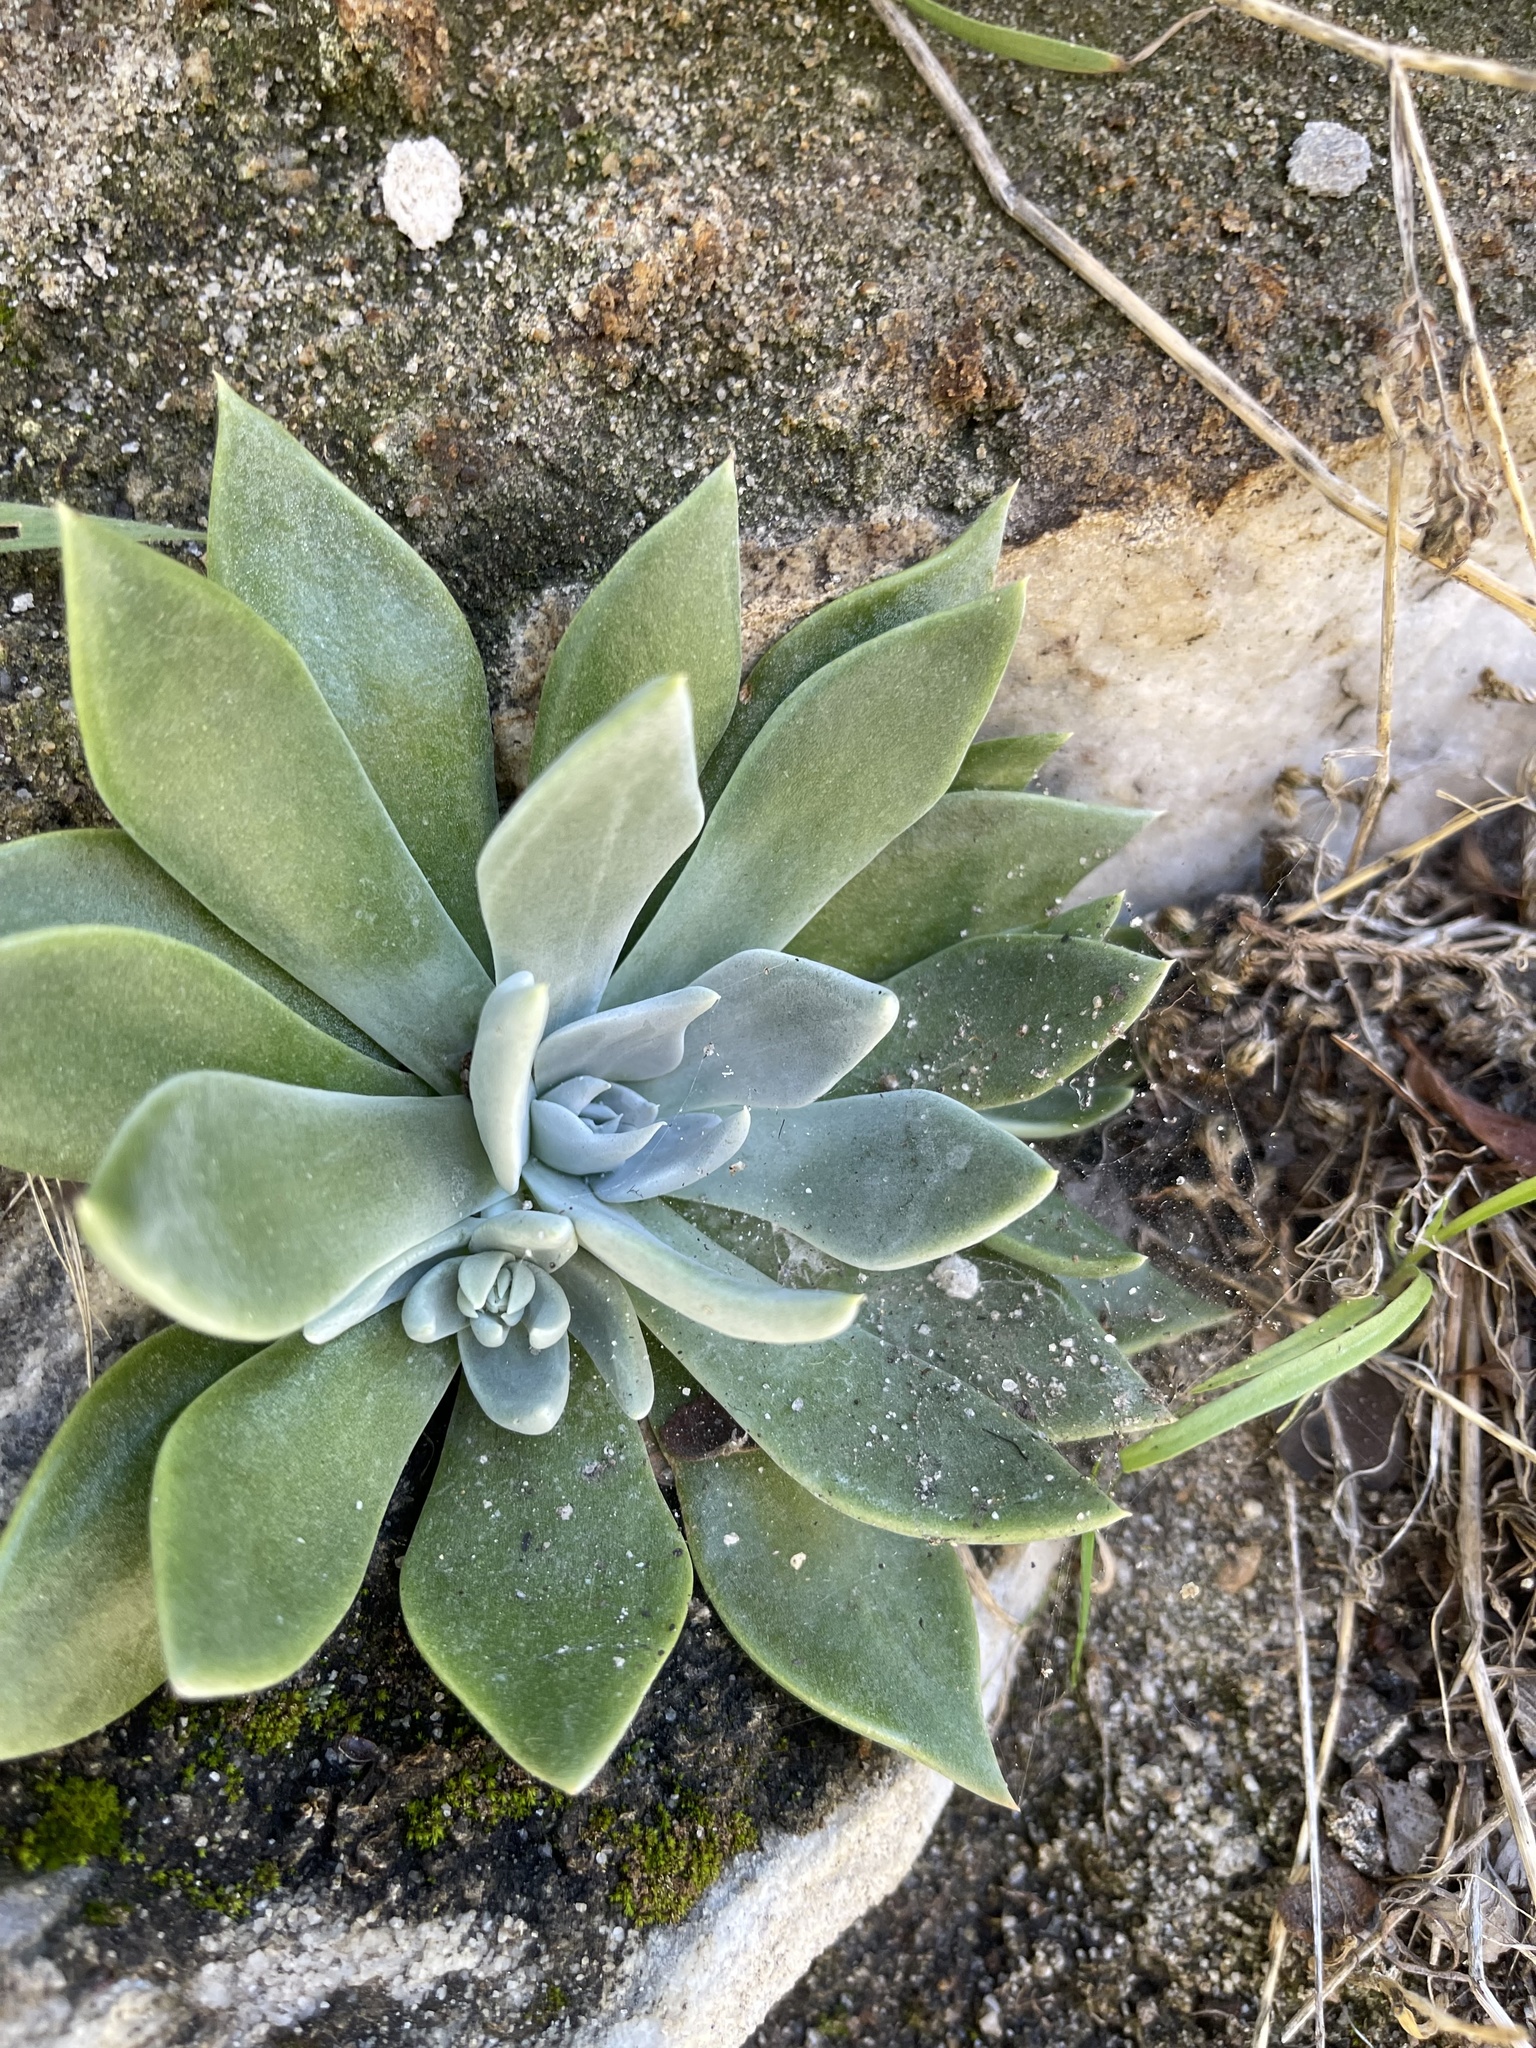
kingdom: Plantae
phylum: Tracheophyta
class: Magnoliopsida
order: Saxifragales
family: Crassulaceae
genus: Dudleya
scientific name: Dudleya cymosa
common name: Canyon dudleya
